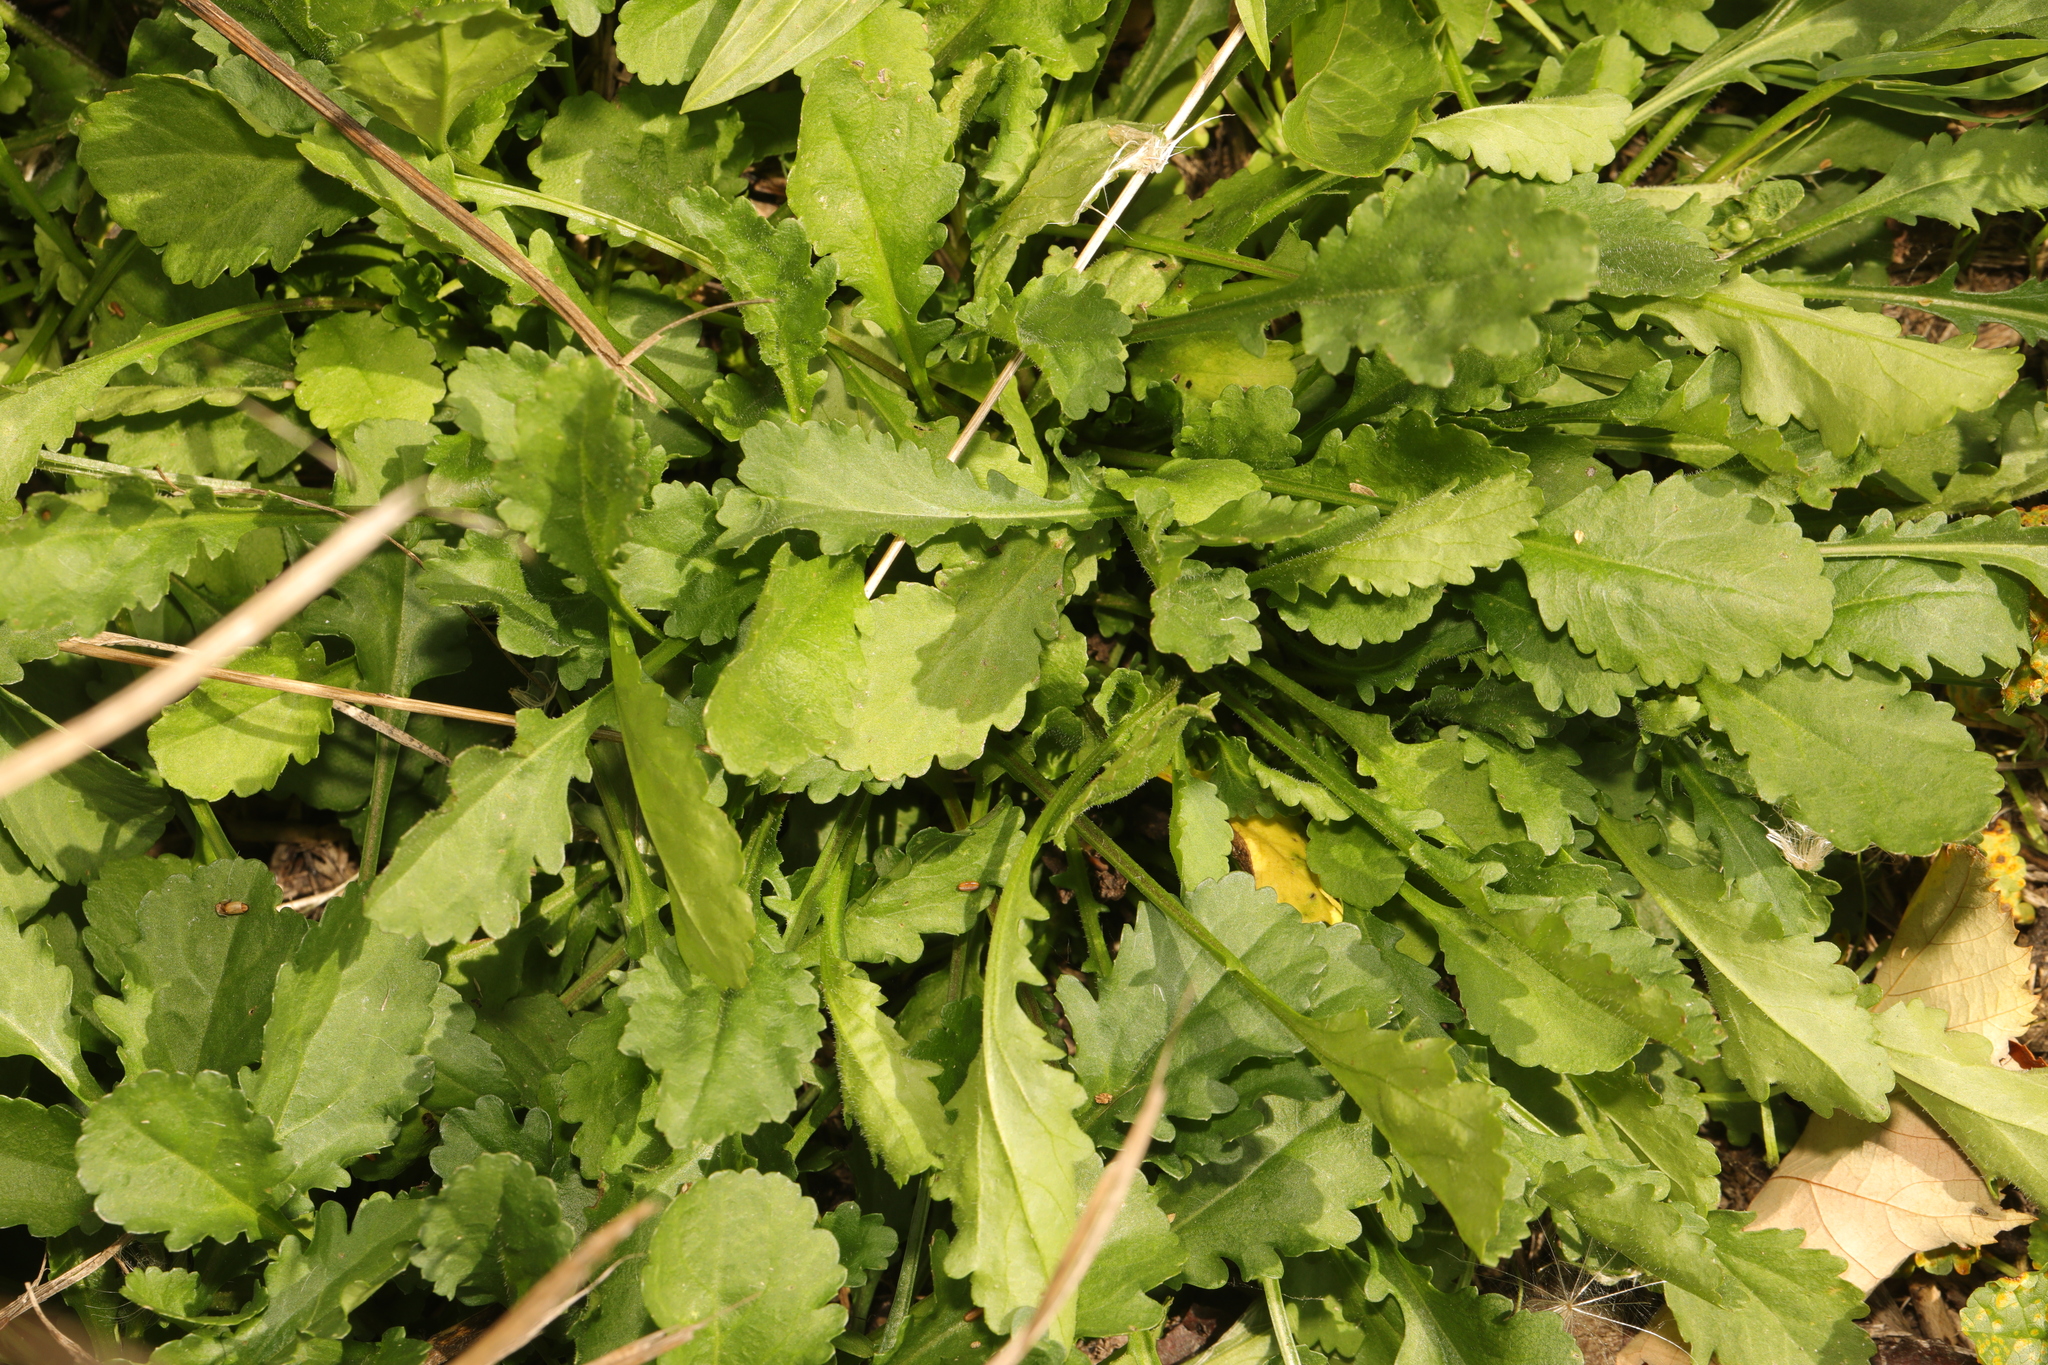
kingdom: Plantae
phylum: Tracheophyta
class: Magnoliopsida
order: Asterales
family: Asteraceae
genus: Leucanthemum
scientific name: Leucanthemum vulgare
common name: Oxeye daisy
